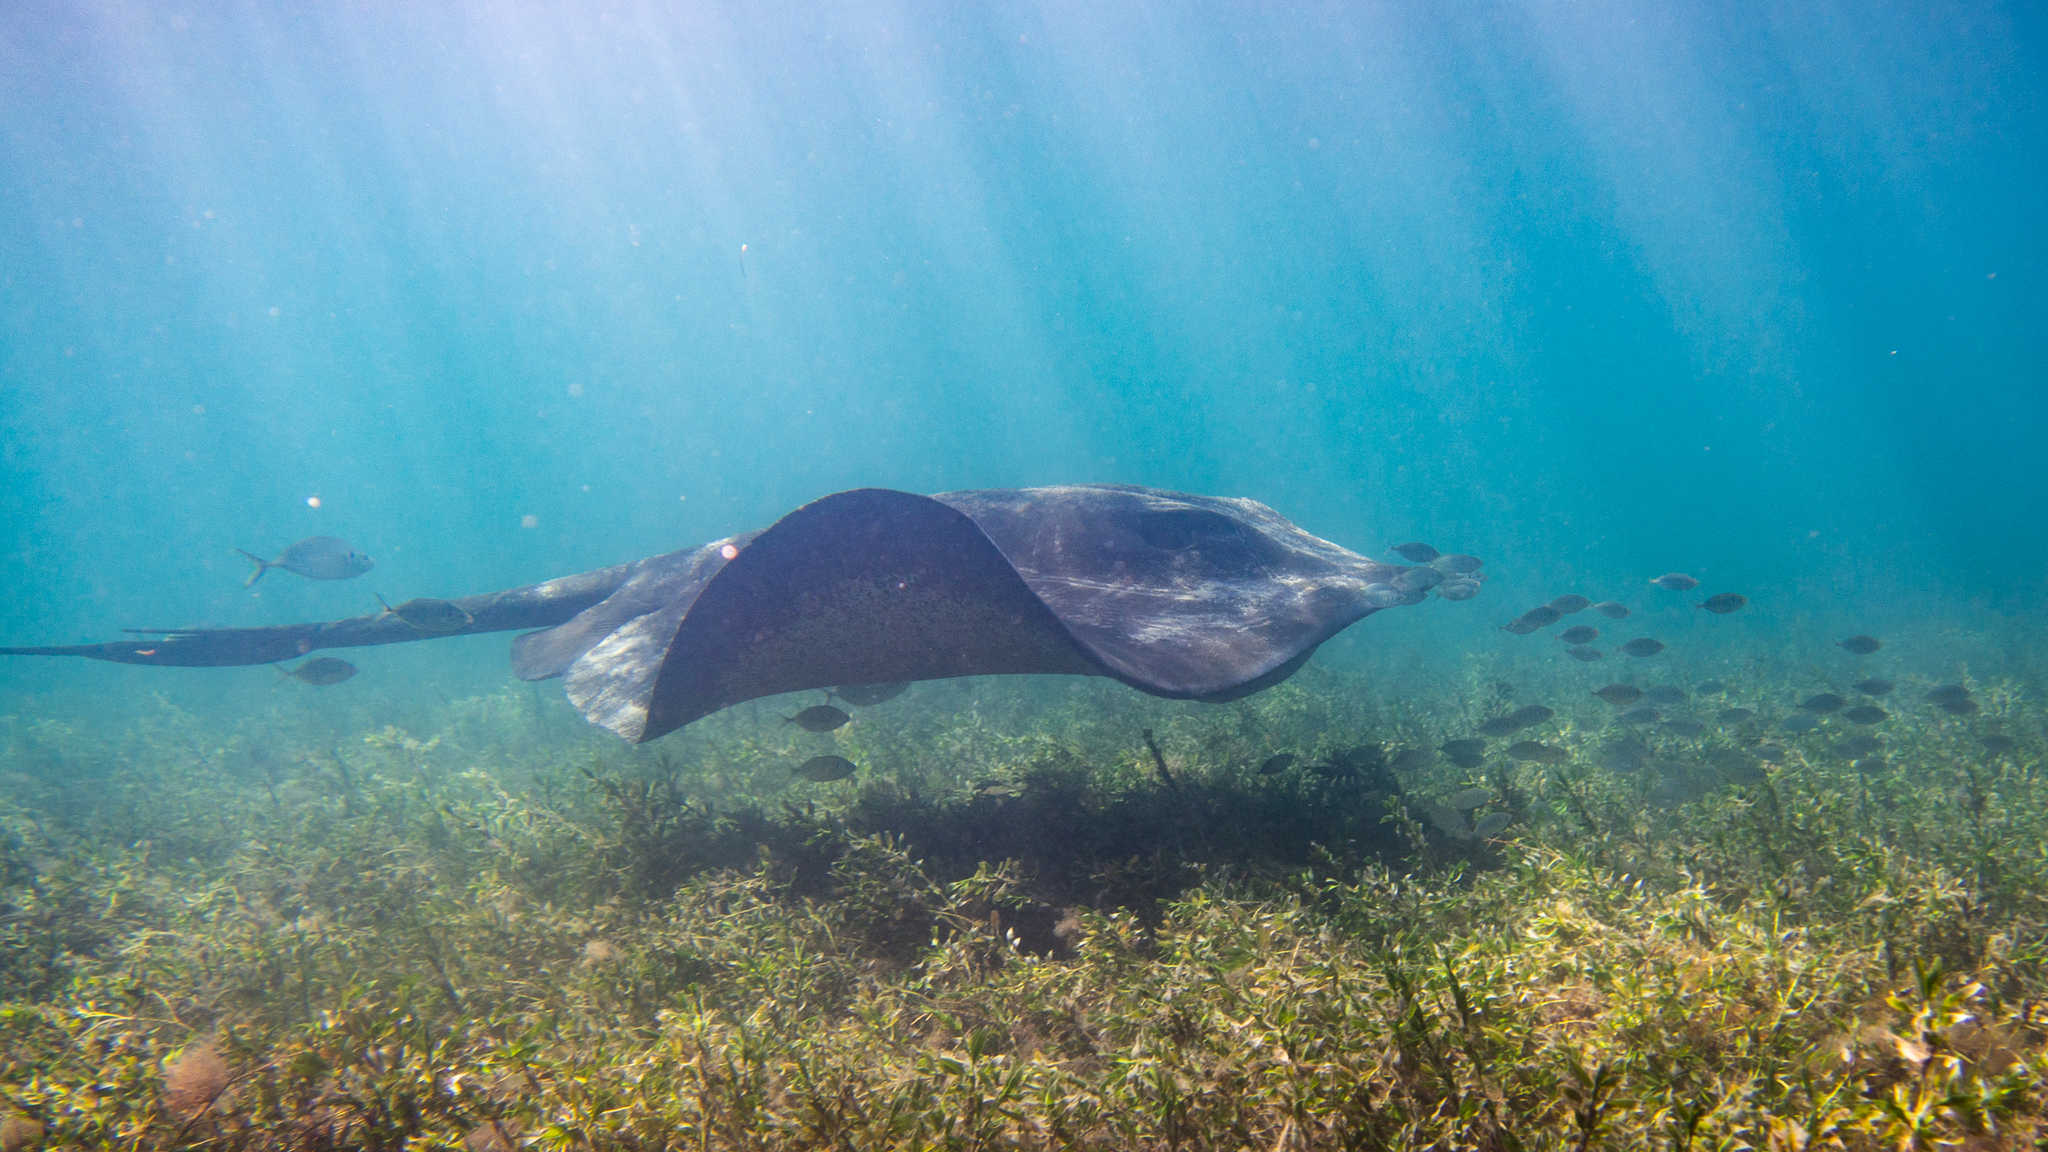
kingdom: Animalia
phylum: Chordata
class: Elasmobranchii
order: Myliobatiformes
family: Dasyatidae
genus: Bathytoshia
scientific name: Bathytoshia brevicaudata
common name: Short-tail stingray
